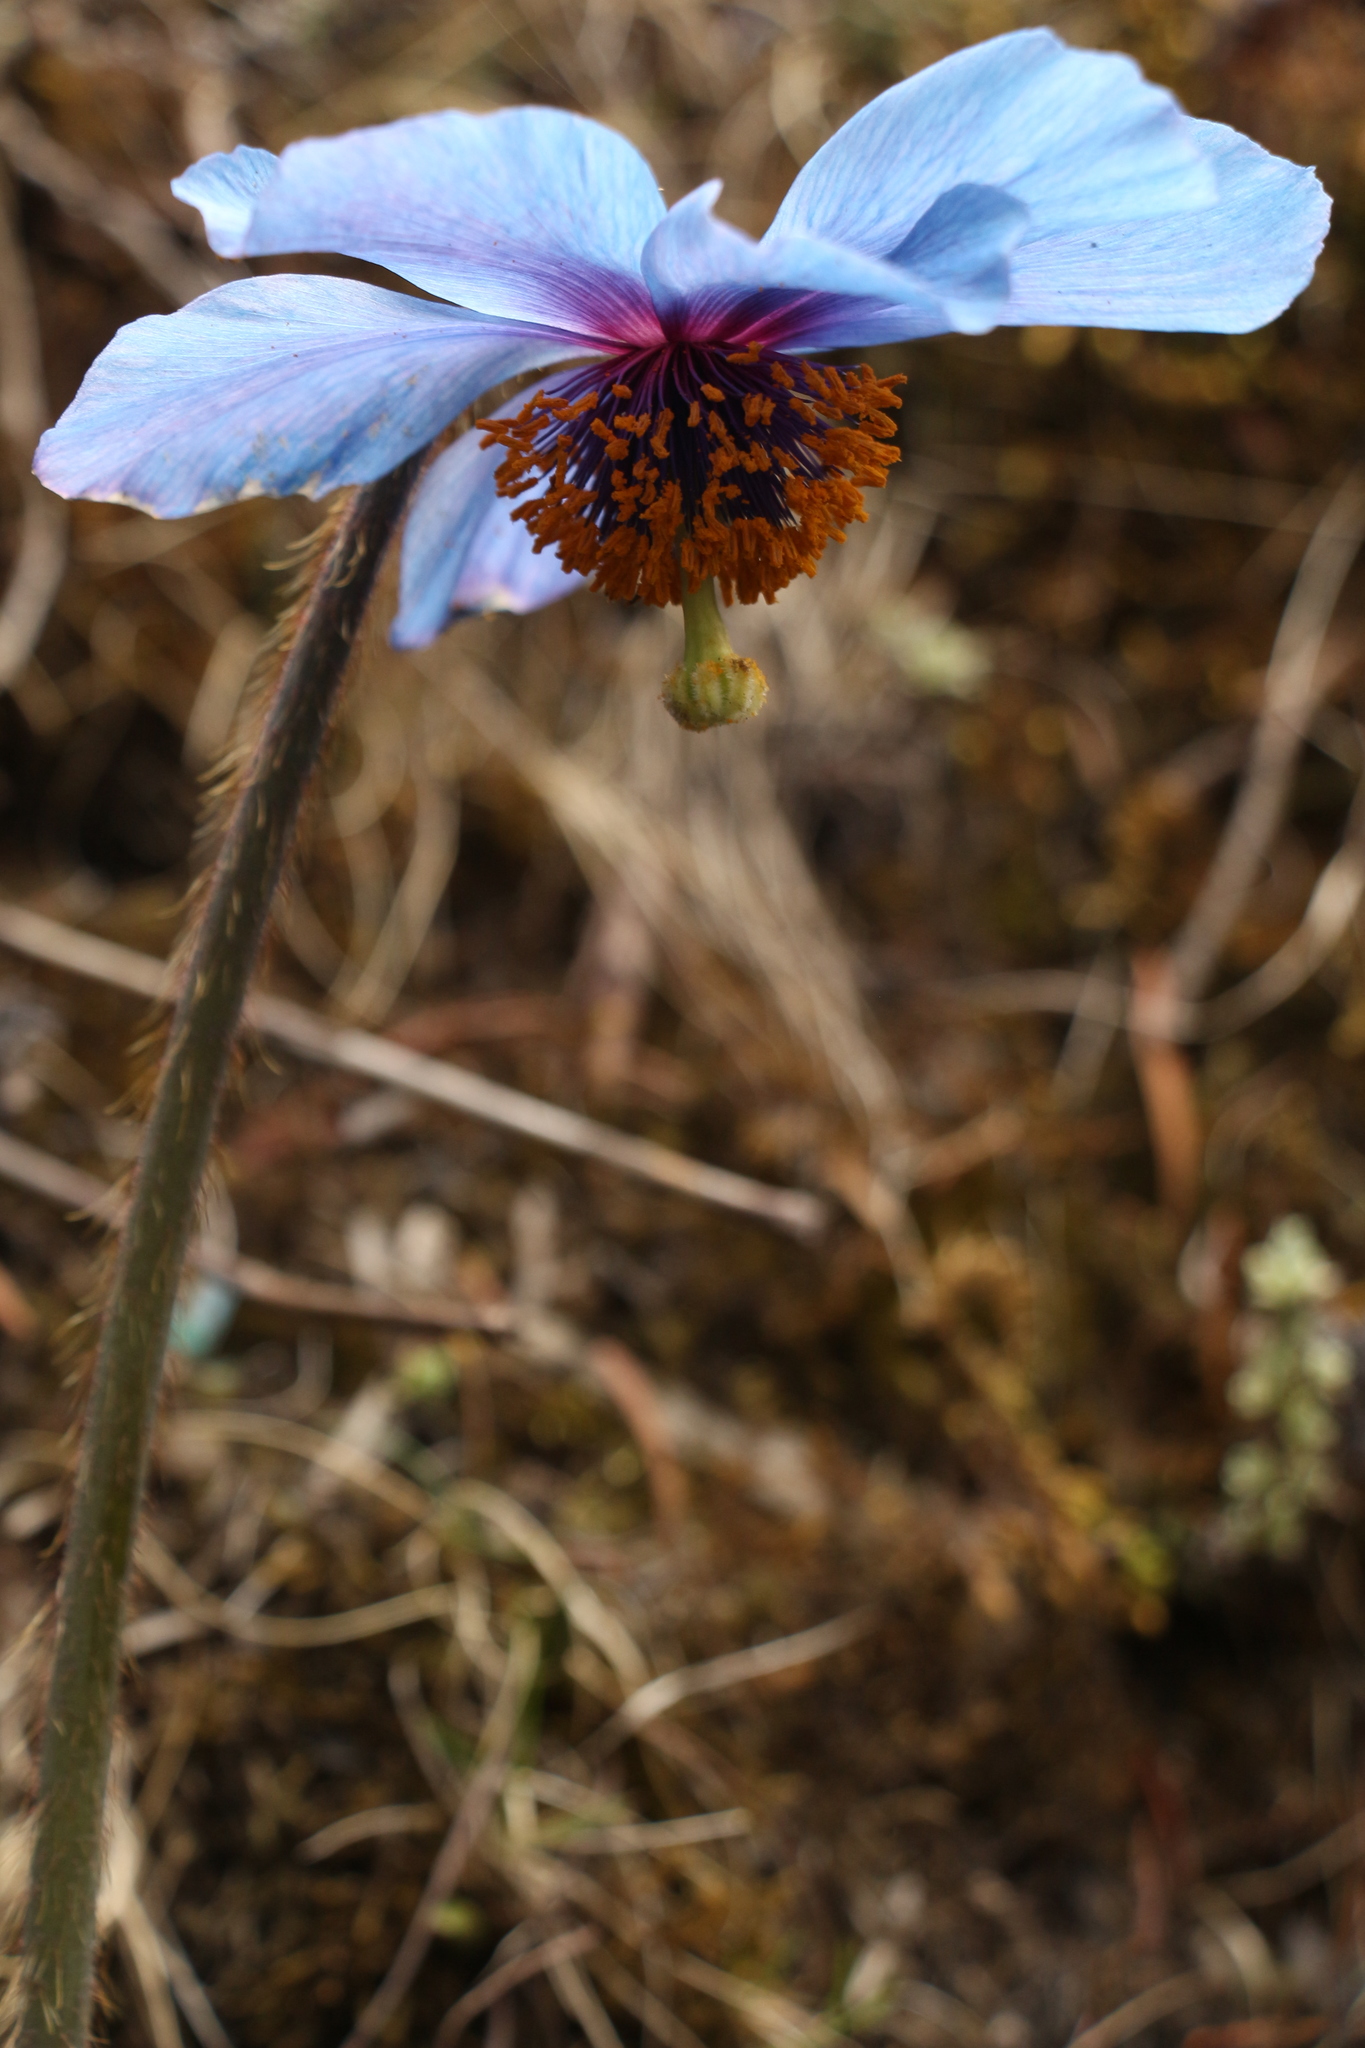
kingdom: Plantae
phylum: Tracheophyta
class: Magnoliopsida
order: Ranunculales
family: Papaveraceae
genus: Meconopsis
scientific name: Meconopsis simplicifolia
